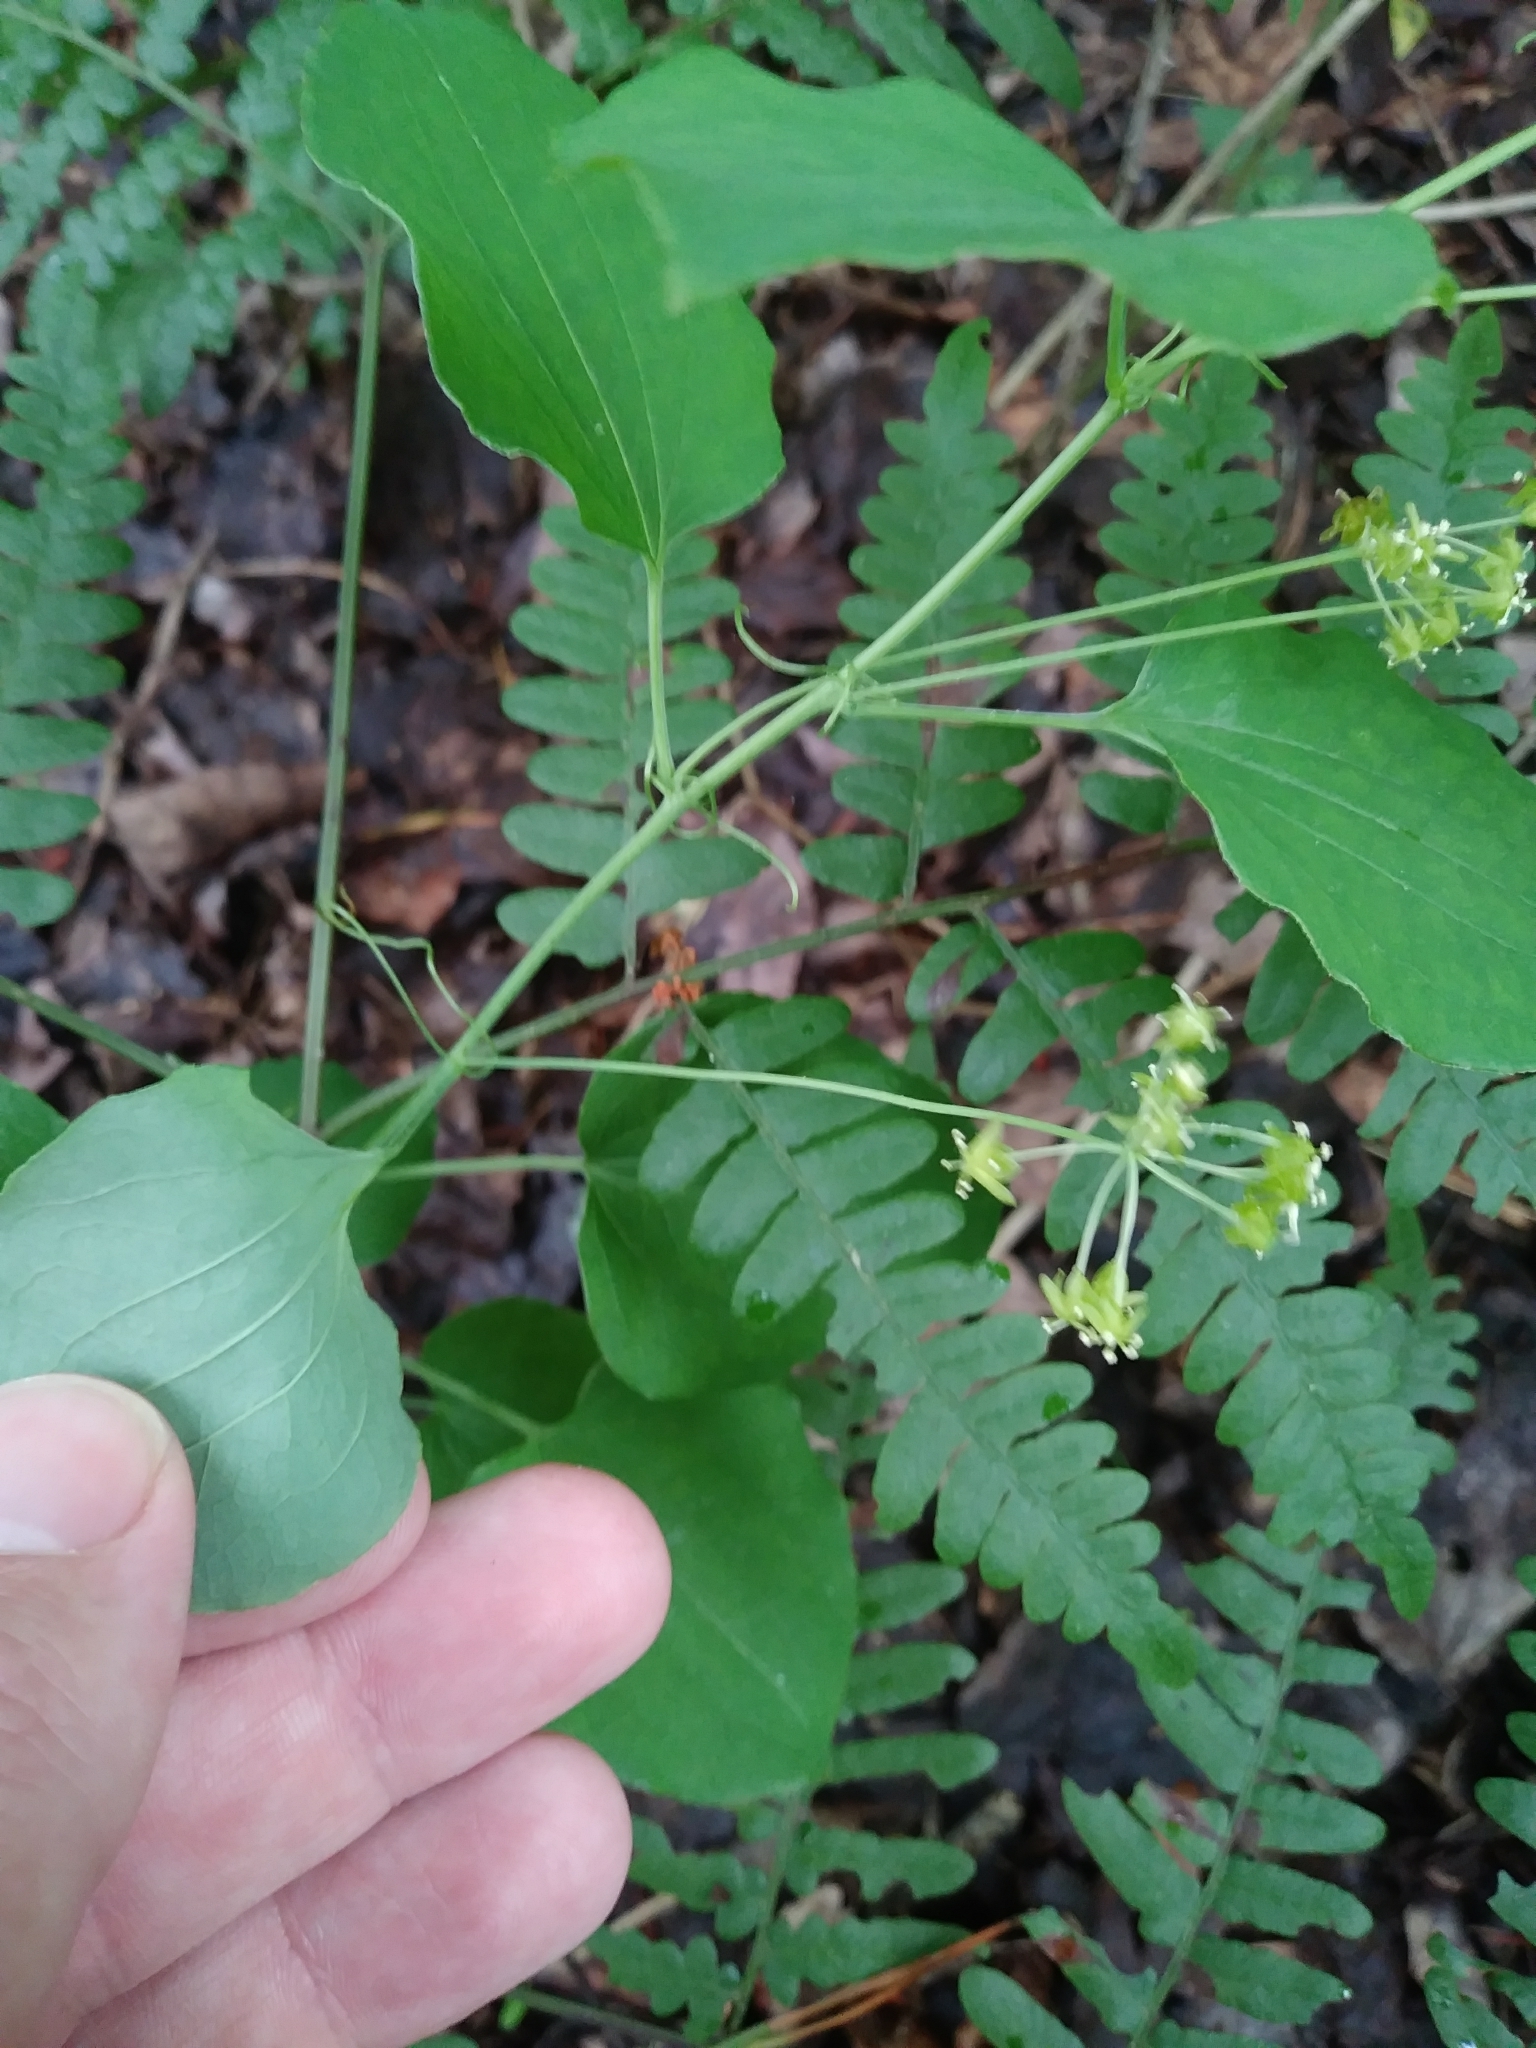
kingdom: Plantae
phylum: Tracheophyta
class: Liliopsida
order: Liliales
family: Smilacaceae
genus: Smilax
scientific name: Smilax herbacea
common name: Jacob's-ladder
